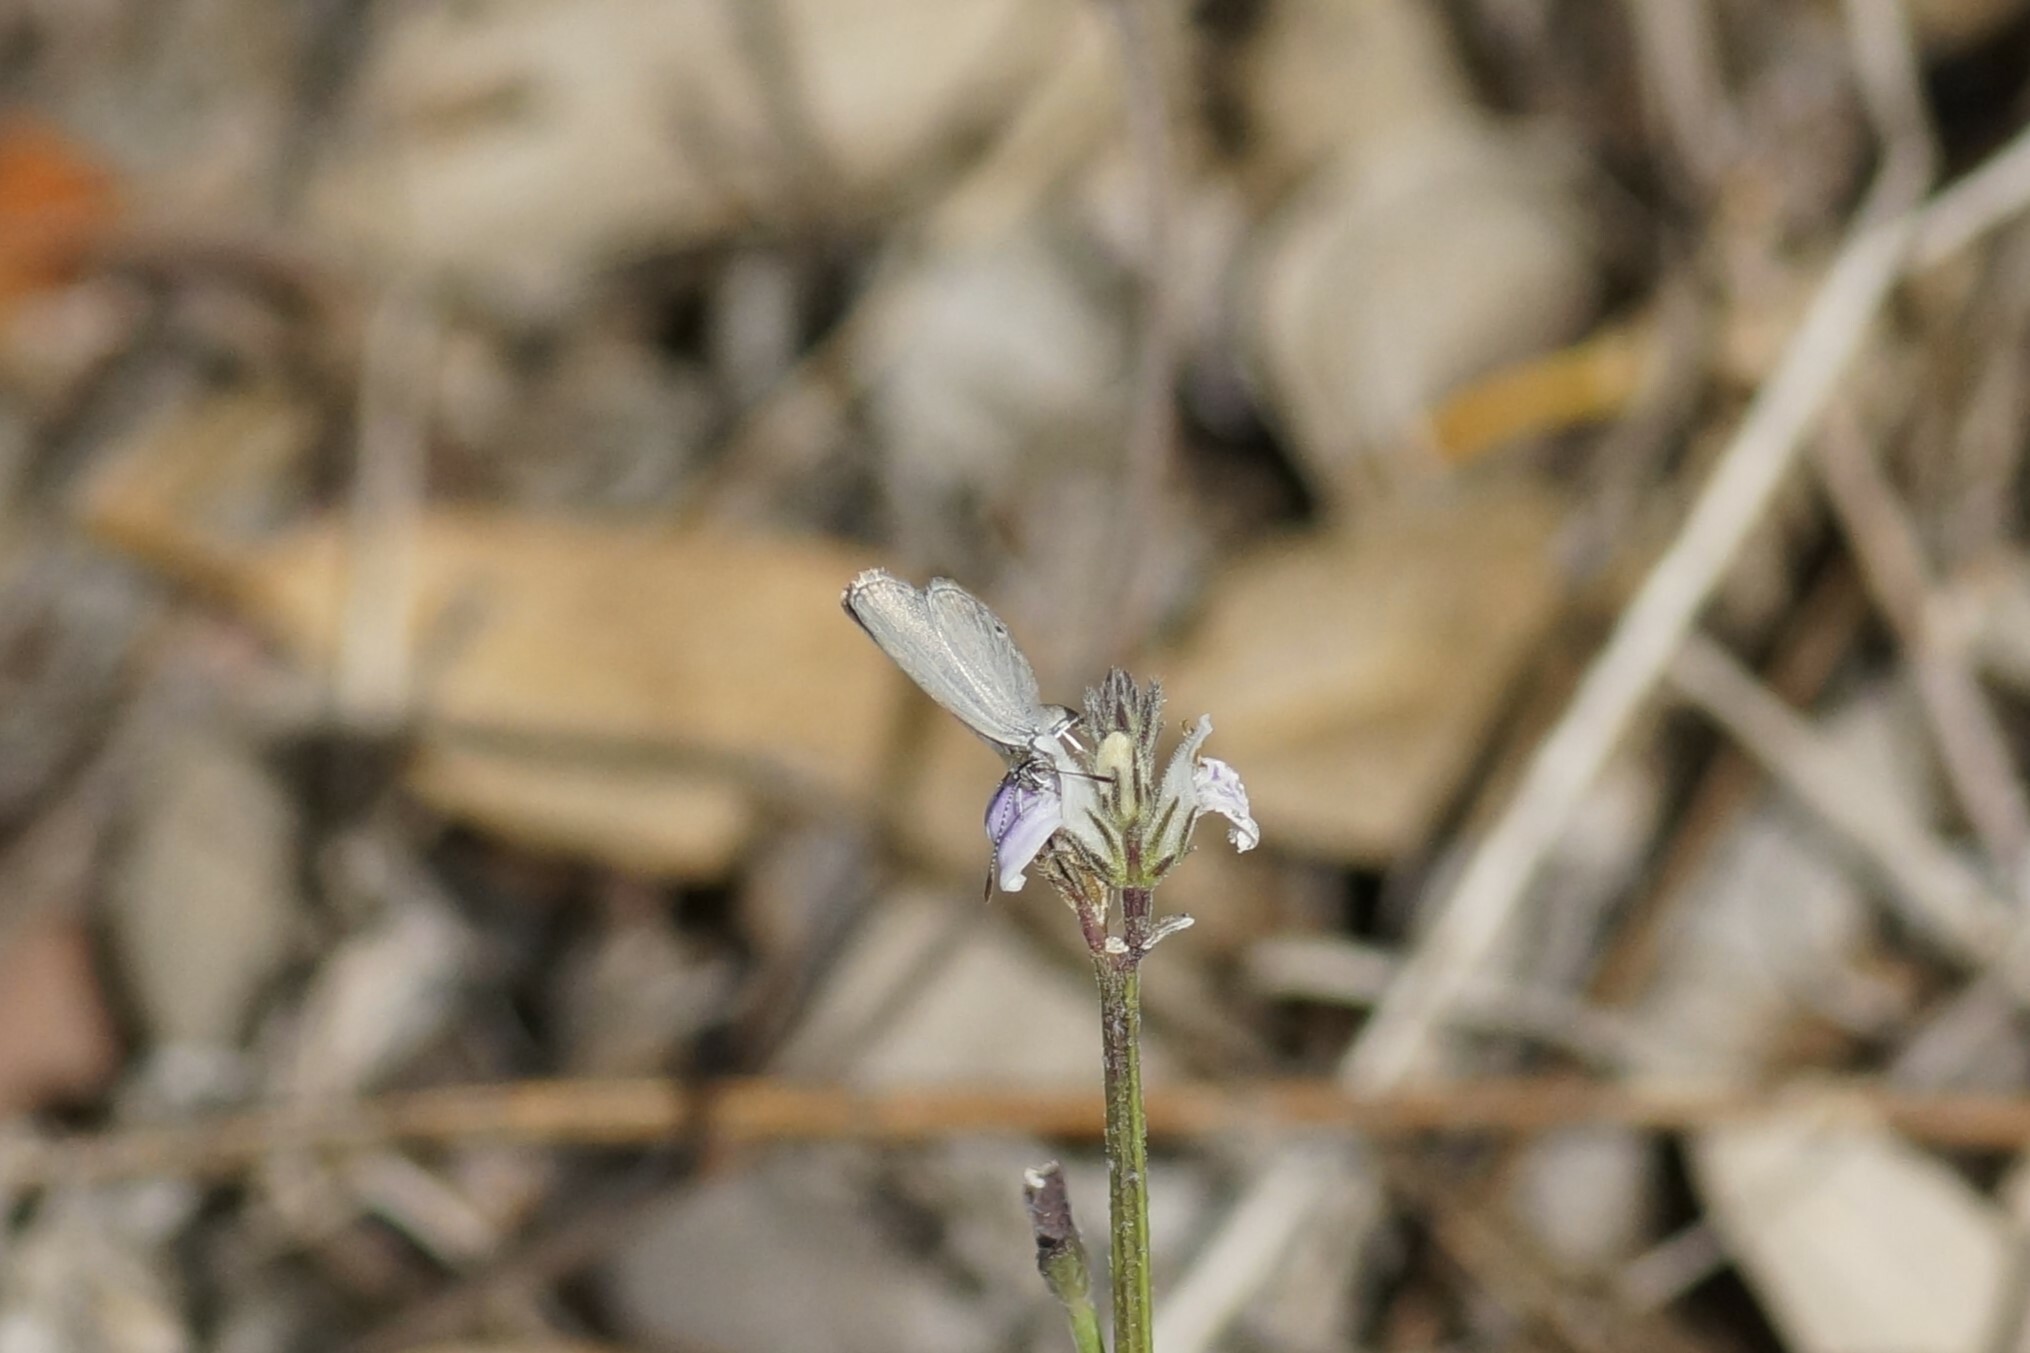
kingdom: Animalia
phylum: Arthropoda
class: Insecta
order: Lepidoptera
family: Lycaenidae
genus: Cupido
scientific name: Cupido nisa
